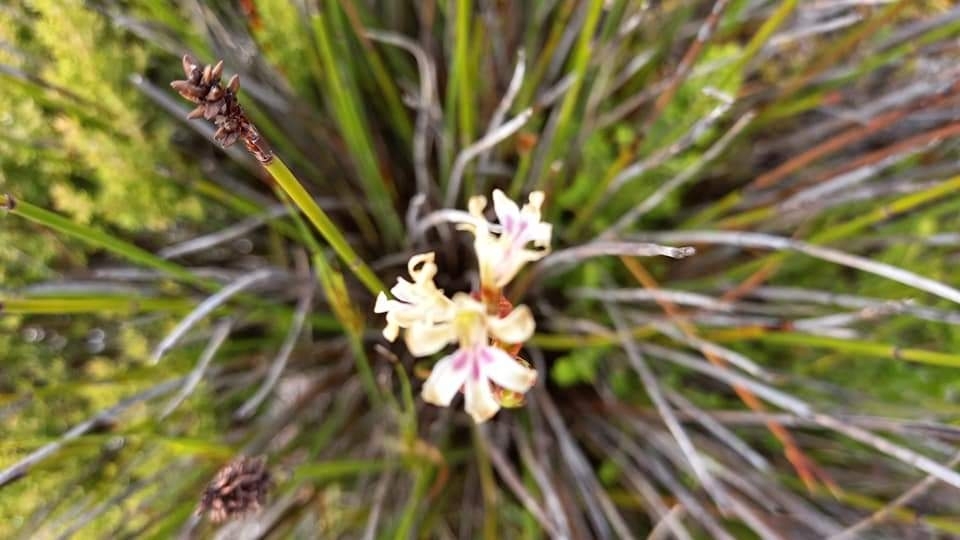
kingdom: Plantae
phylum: Tracheophyta
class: Liliopsida
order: Asparagales
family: Iridaceae
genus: Tritoniopsis
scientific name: Tritoniopsis unguicularis
